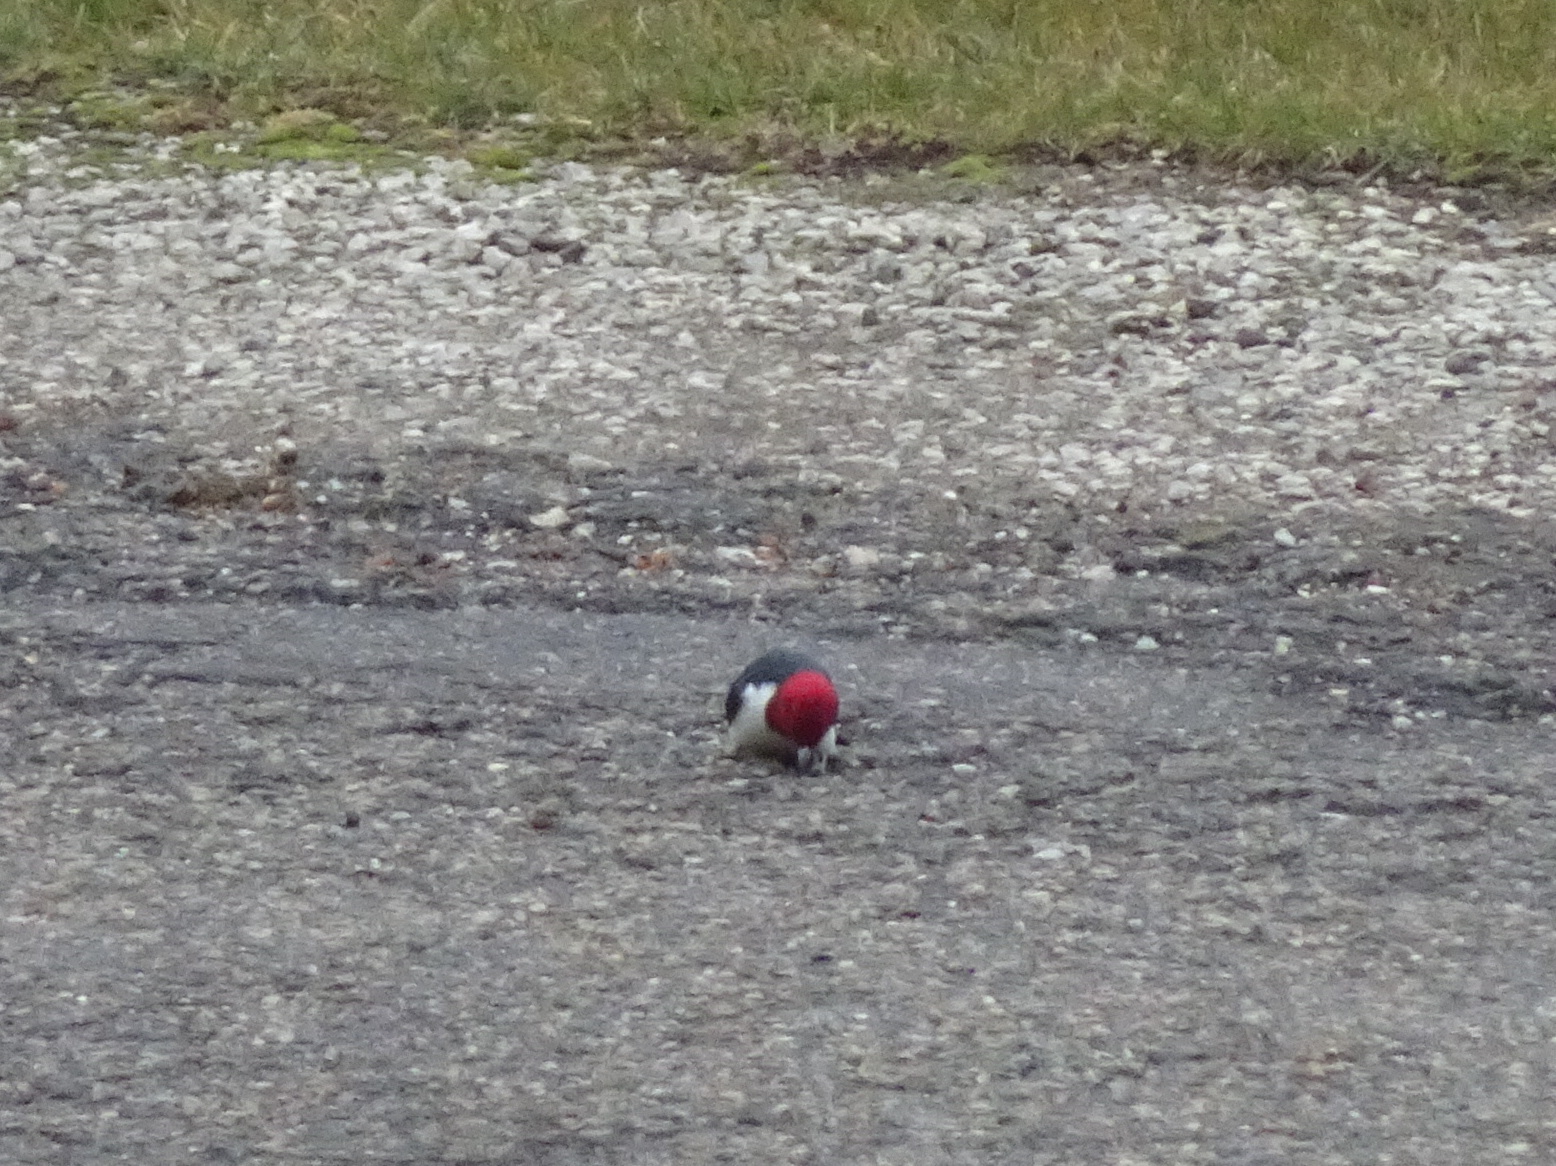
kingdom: Animalia
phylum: Chordata
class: Aves
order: Piciformes
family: Picidae
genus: Melanerpes
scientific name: Melanerpes erythrocephalus
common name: Red-headed woodpecker
